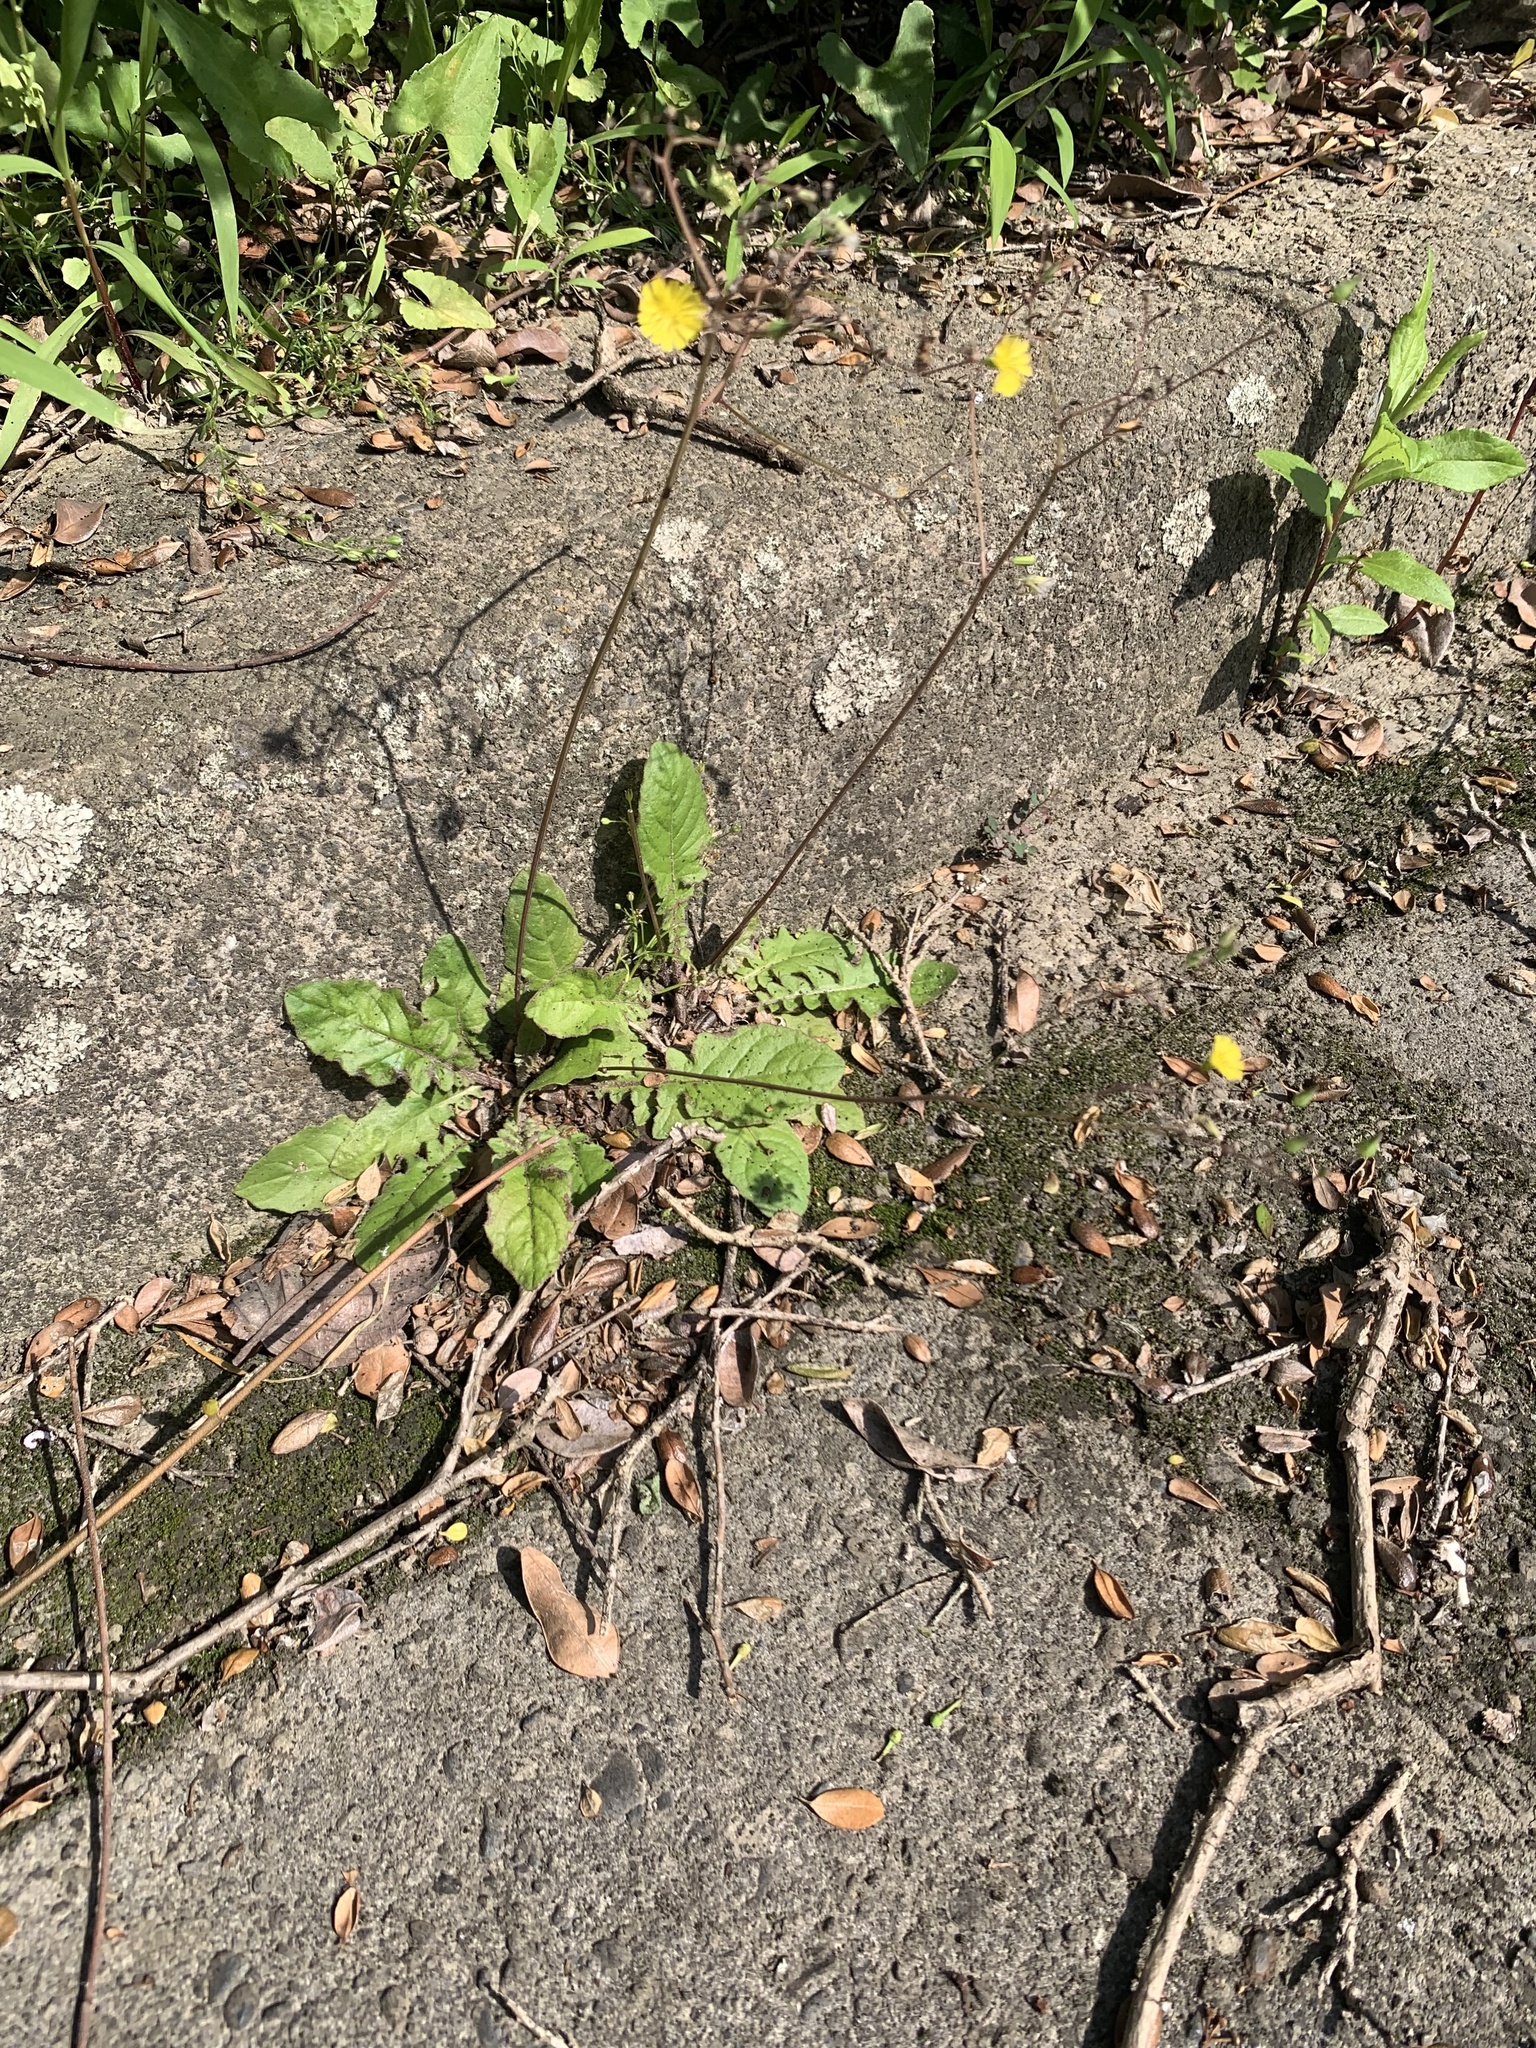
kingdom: Plantae
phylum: Tracheophyta
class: Magnoliopsida
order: Asterales
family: Asteraceae
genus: Youngia
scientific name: Youngia japonica
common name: Oriental false hawksbeard
